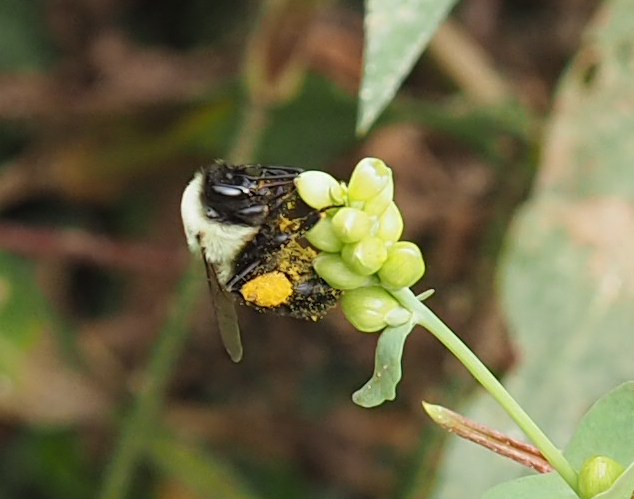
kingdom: Animalia
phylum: Arthropoda
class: Insecta
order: Hymenoptera
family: Apidae
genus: Bombus
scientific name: Bombus impatiens
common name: Common eastern bumble bee
